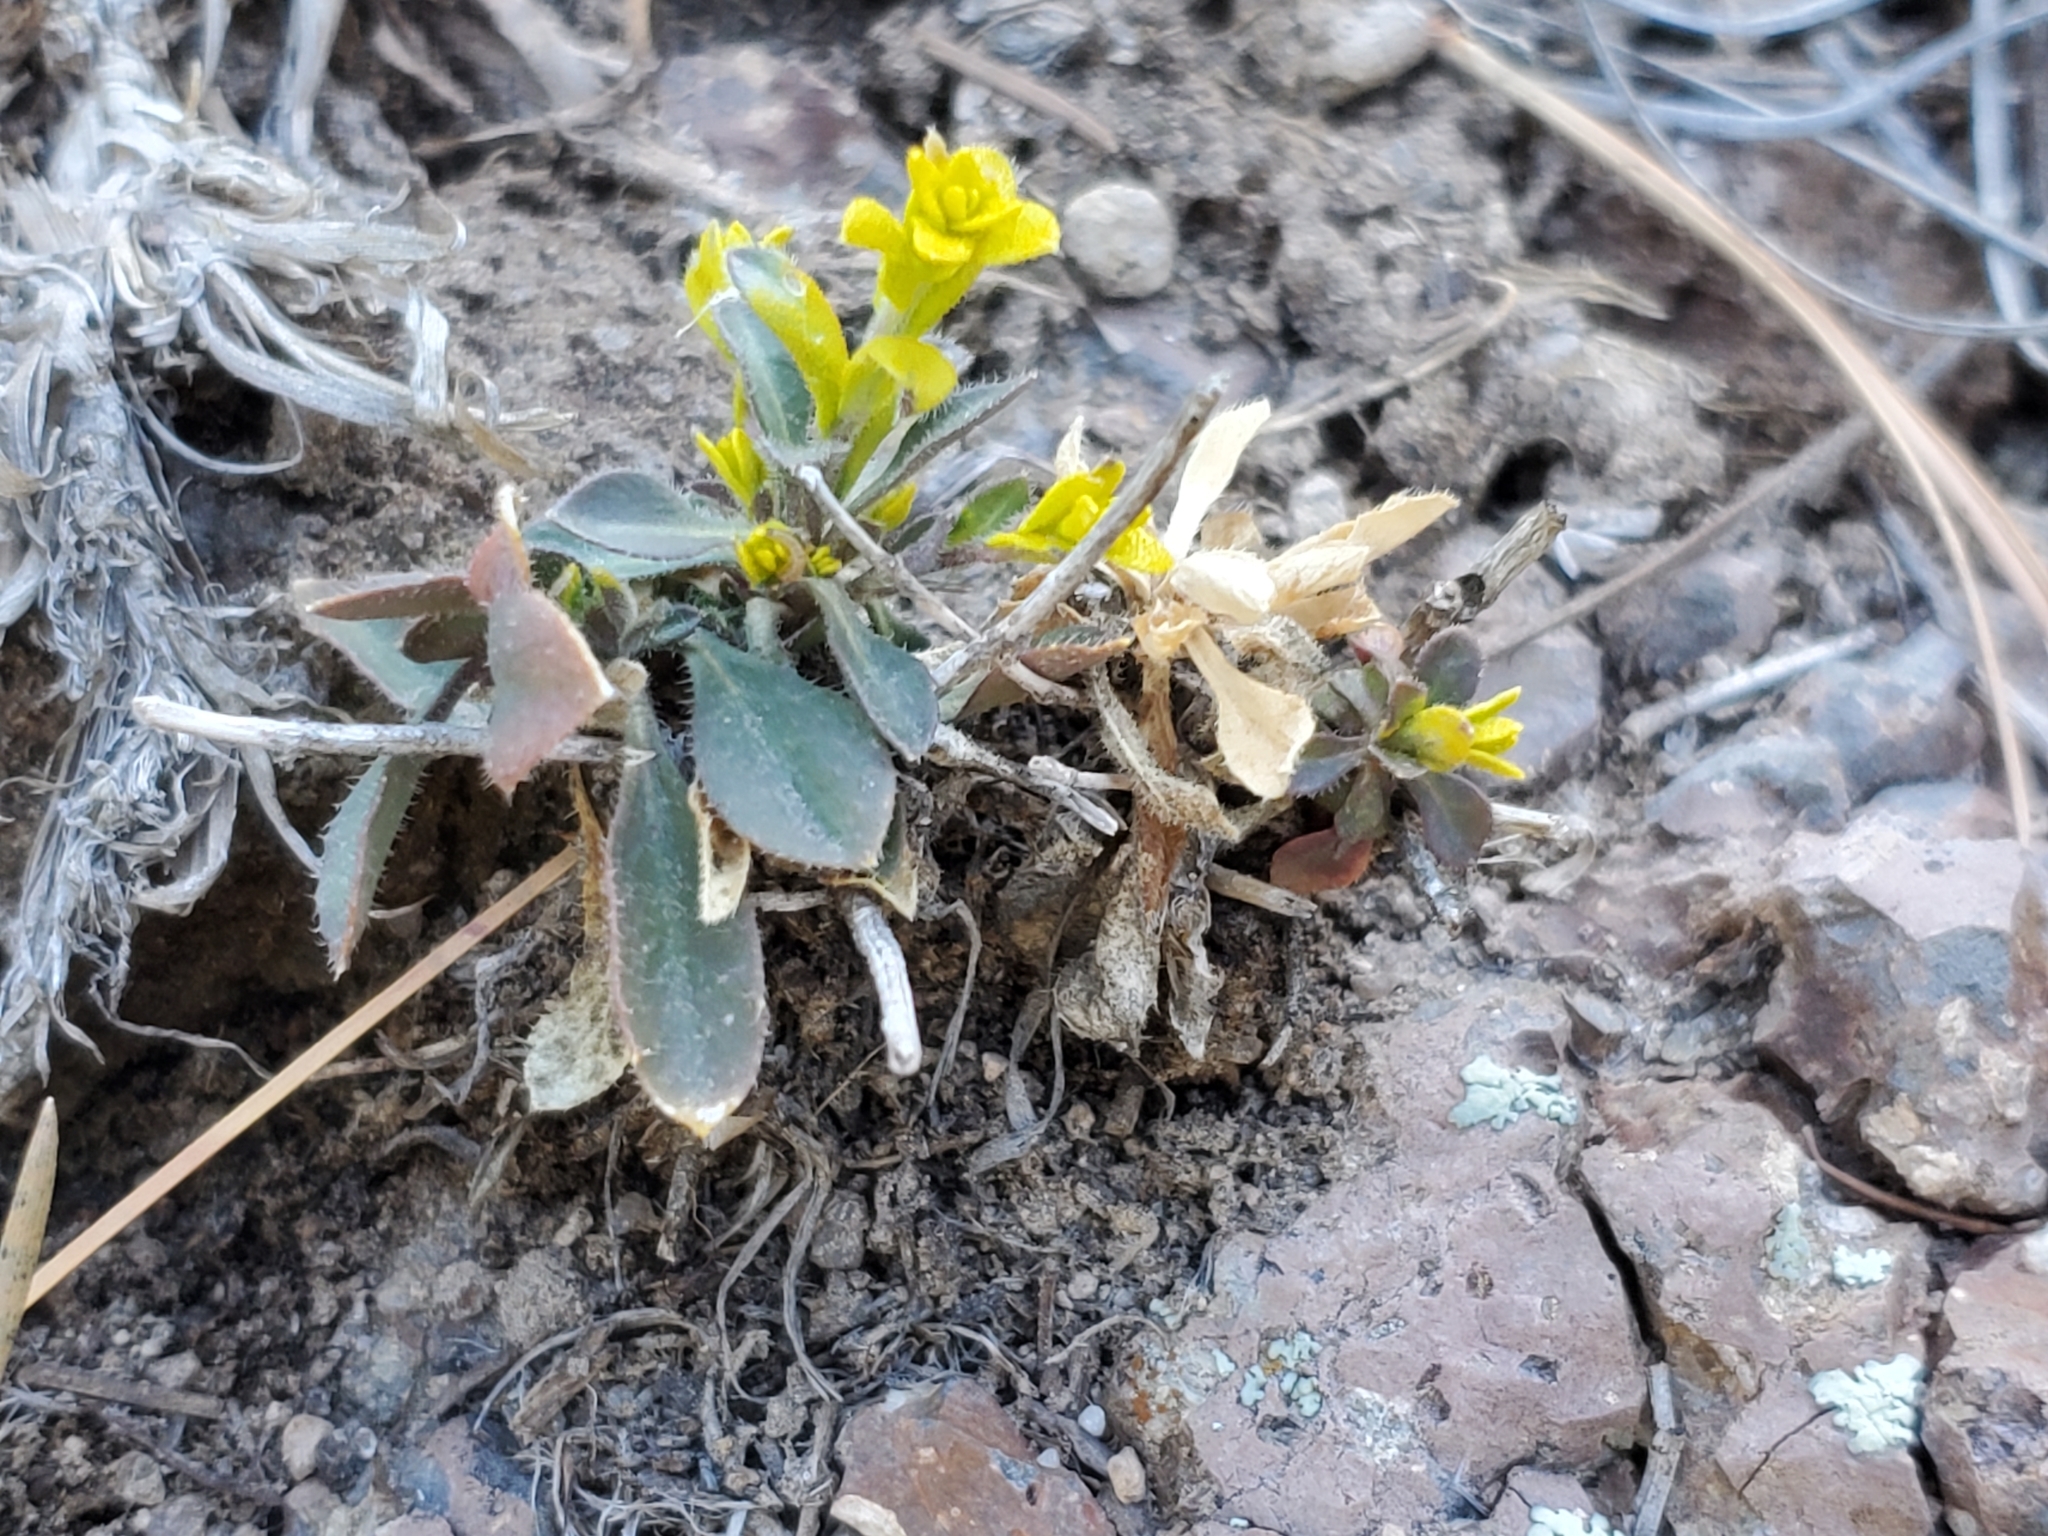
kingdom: Fungi
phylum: Basidiomycota
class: Pucciniomycetes
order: Pucciniales
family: Pucciniaceae
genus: Puccinia
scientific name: Puccinia monoica
